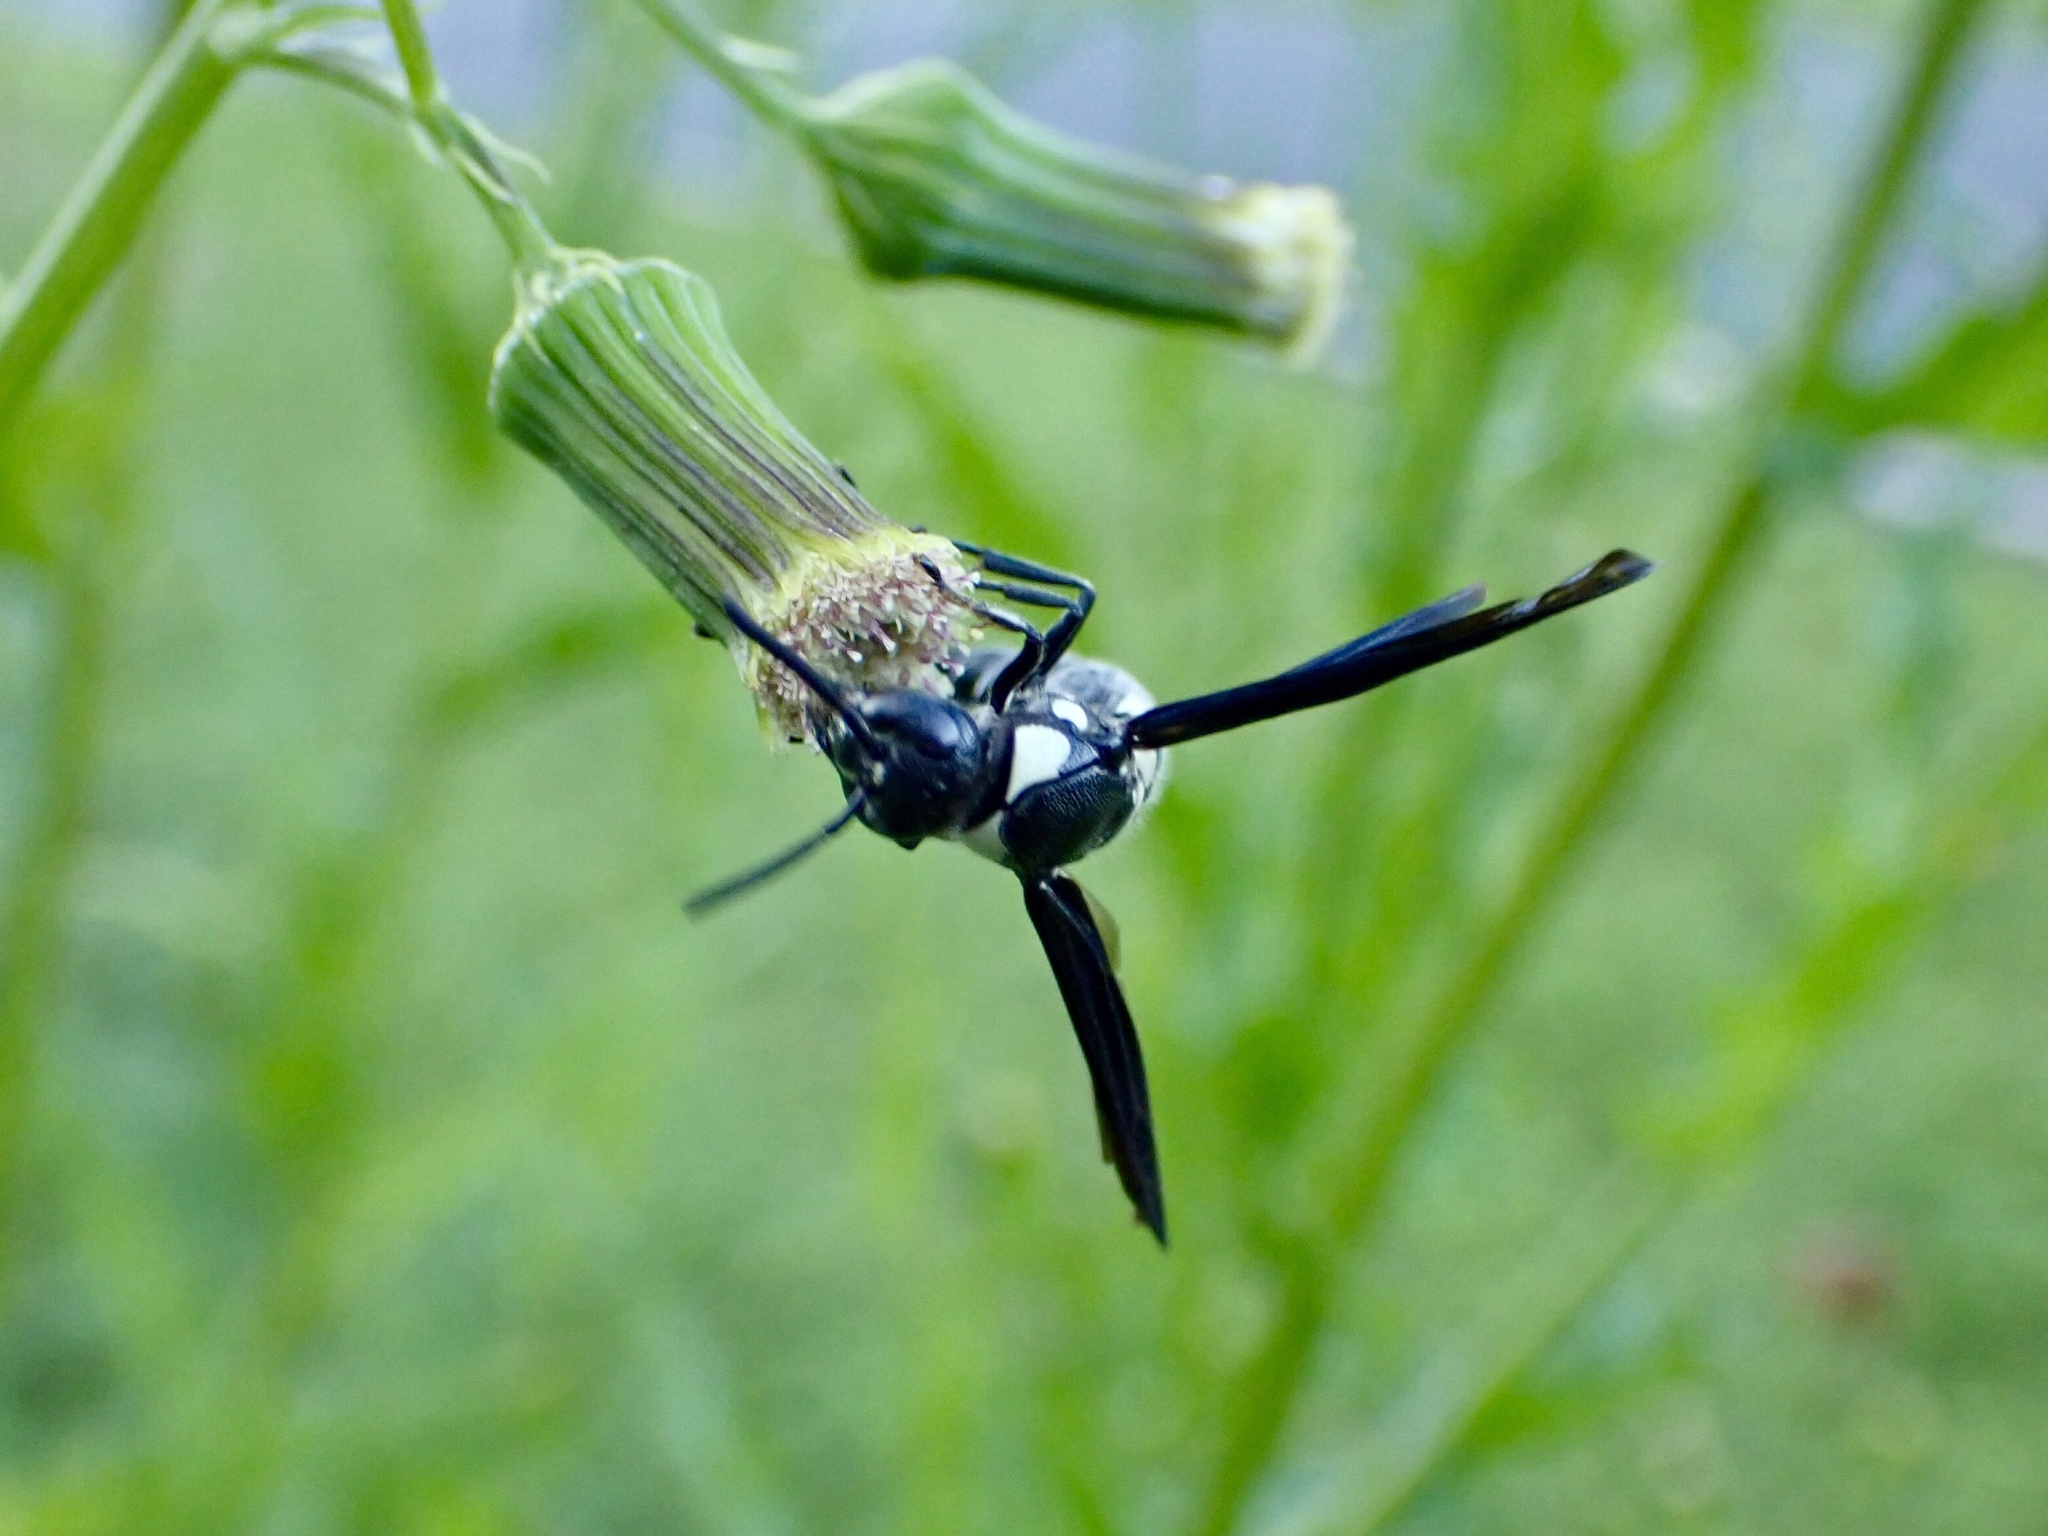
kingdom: Animalia
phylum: Arthropoda
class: Insecta
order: Hymenoptera
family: Eumenidae
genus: Pseudodynerus
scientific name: Pseudodynerus quadrisectus
